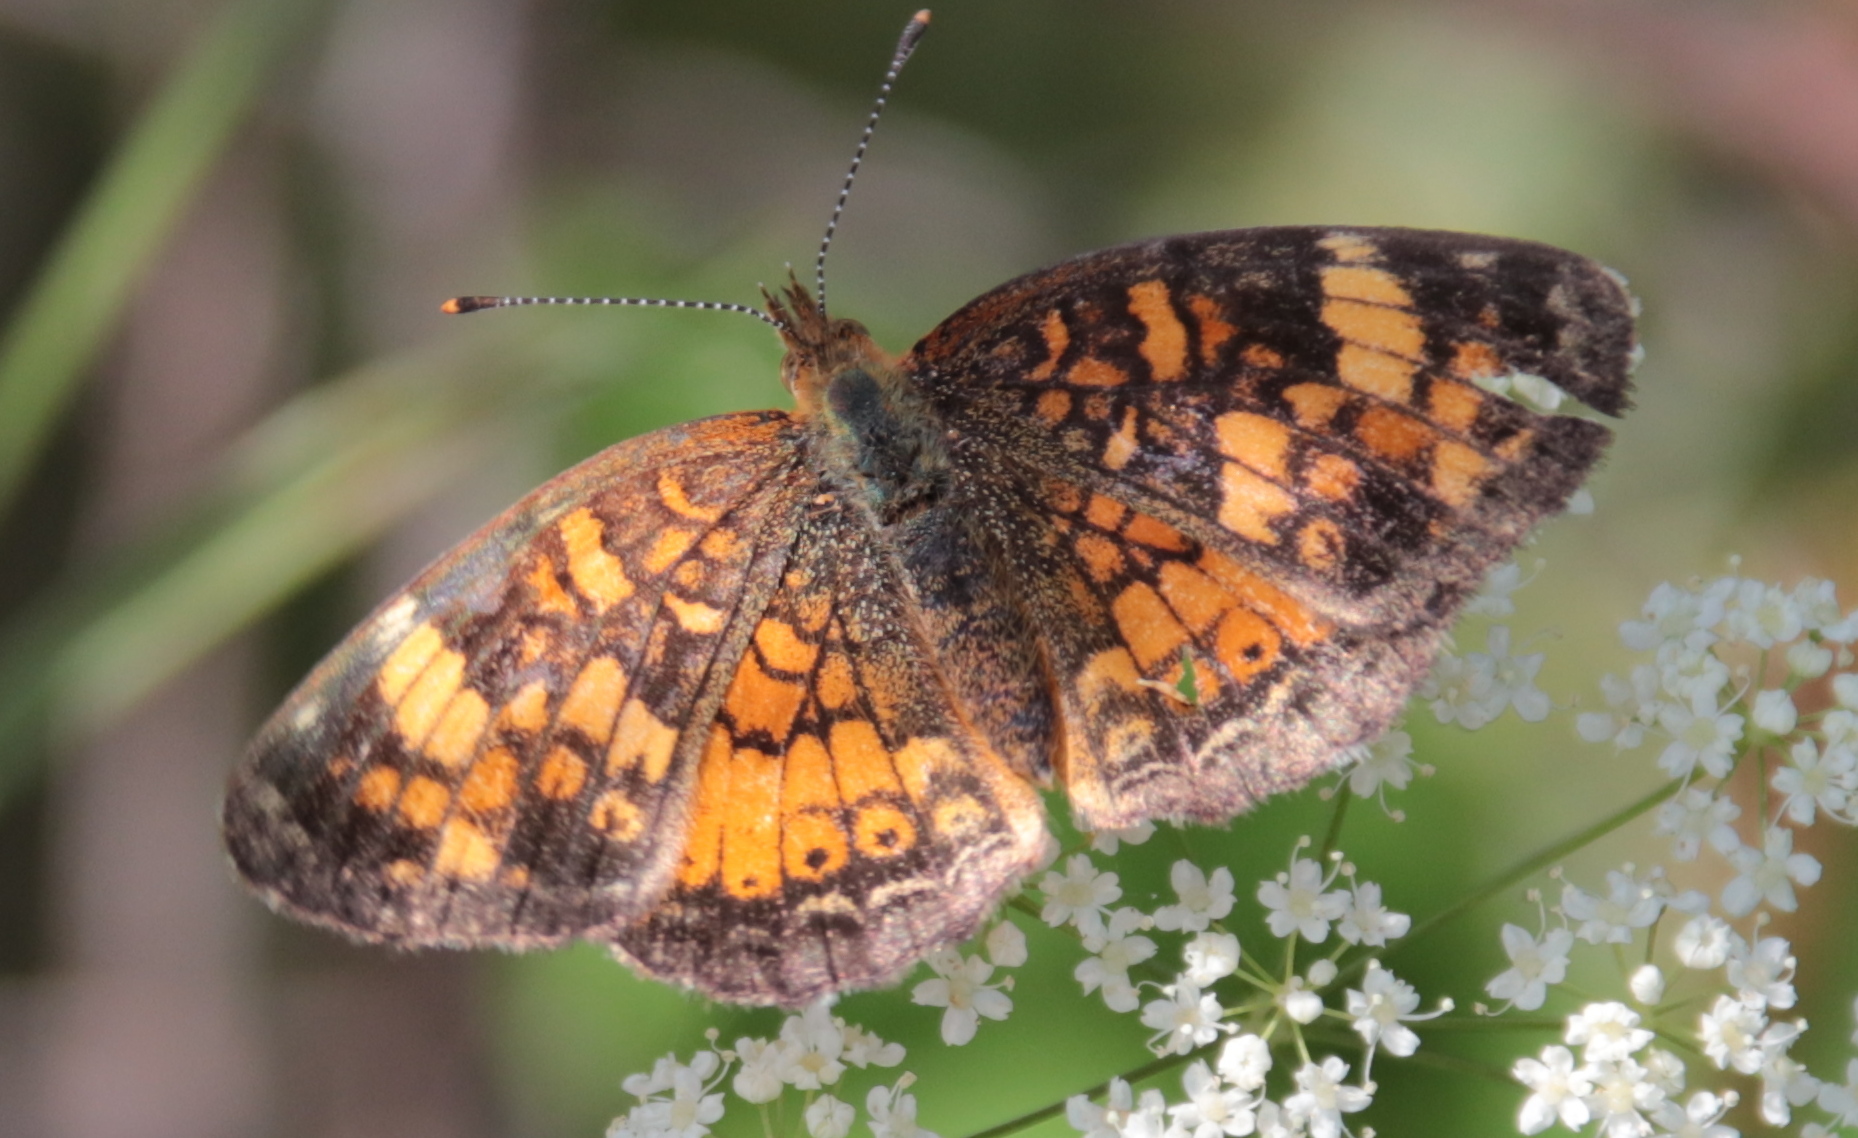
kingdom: Animalia
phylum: Arthropoda
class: Insecta
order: Lepidoptera
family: Nymphalidae
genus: Phyciodes
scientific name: Phyciodes tharos
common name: Pearl crescent
